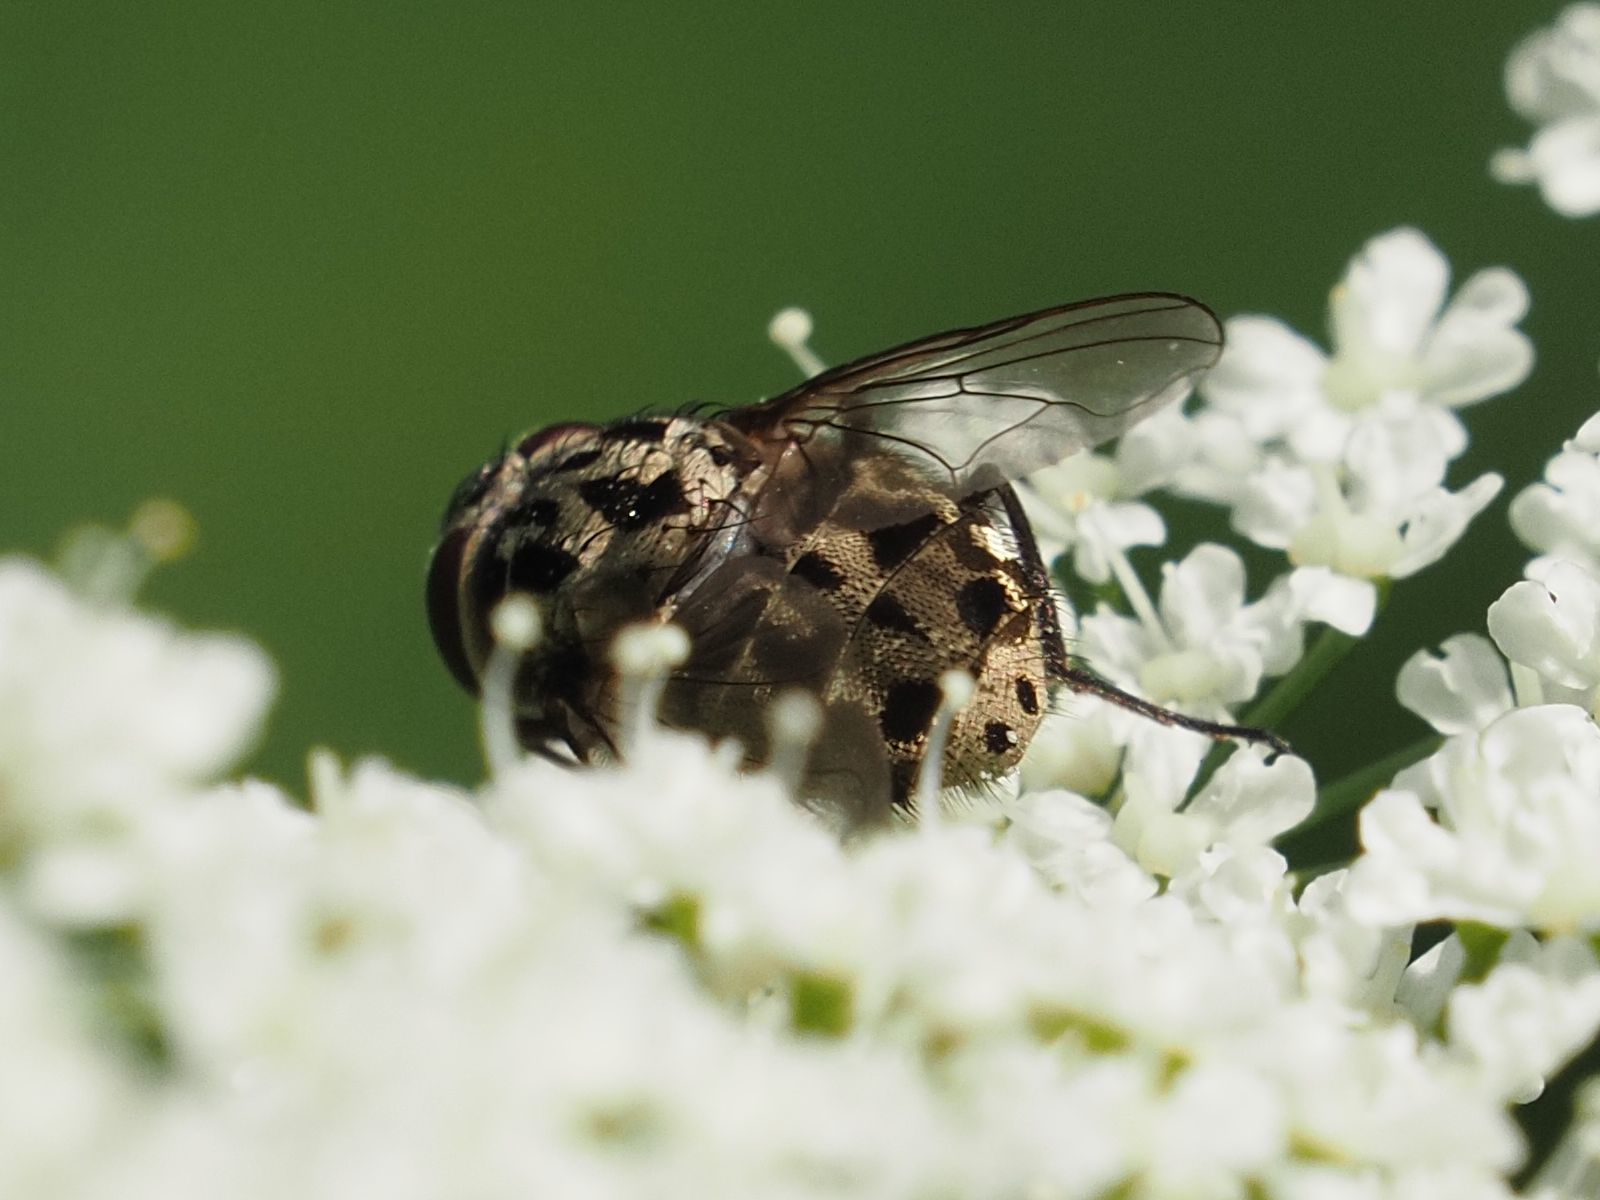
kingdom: Animalia
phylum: Arthropoda
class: Insecta
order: Diptera
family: Muscidae
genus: Graphomya
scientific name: Graphomya maculata
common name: Muscid fly
